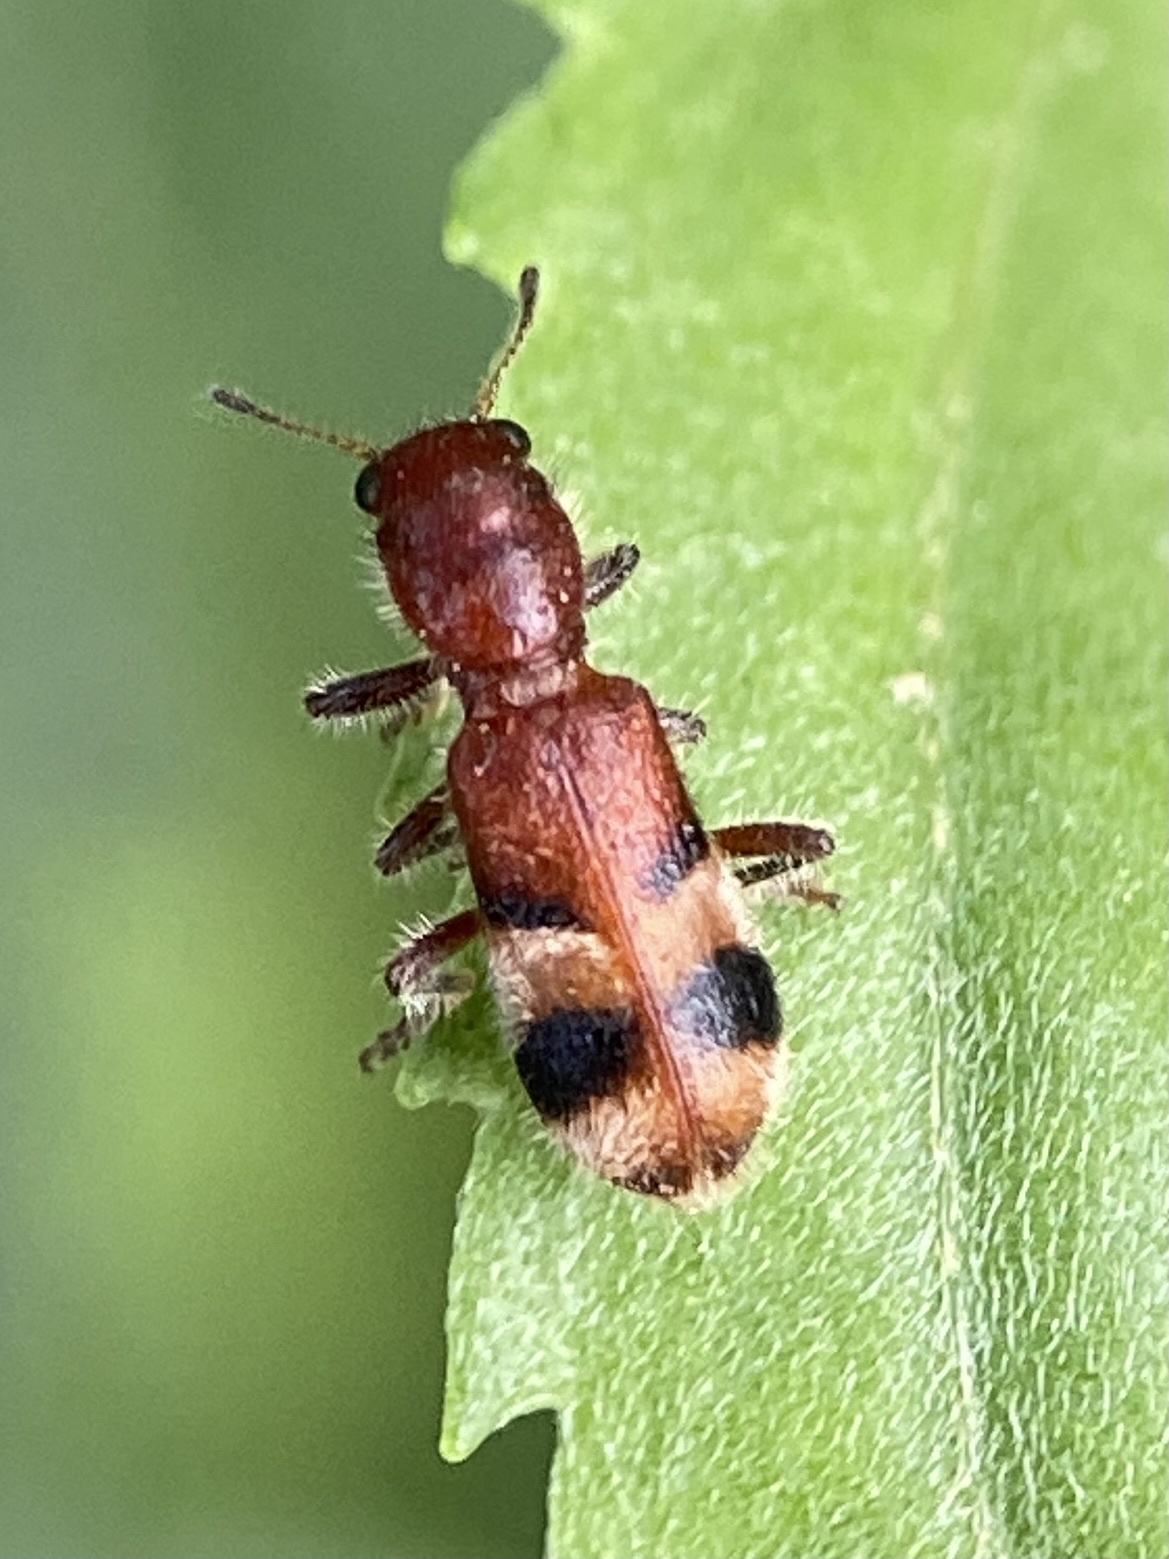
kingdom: Animalia
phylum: Arthropoda
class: Insecta
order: Coleoptera
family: Cleridae
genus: Enoclerus
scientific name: Enoclerus rosmarus
